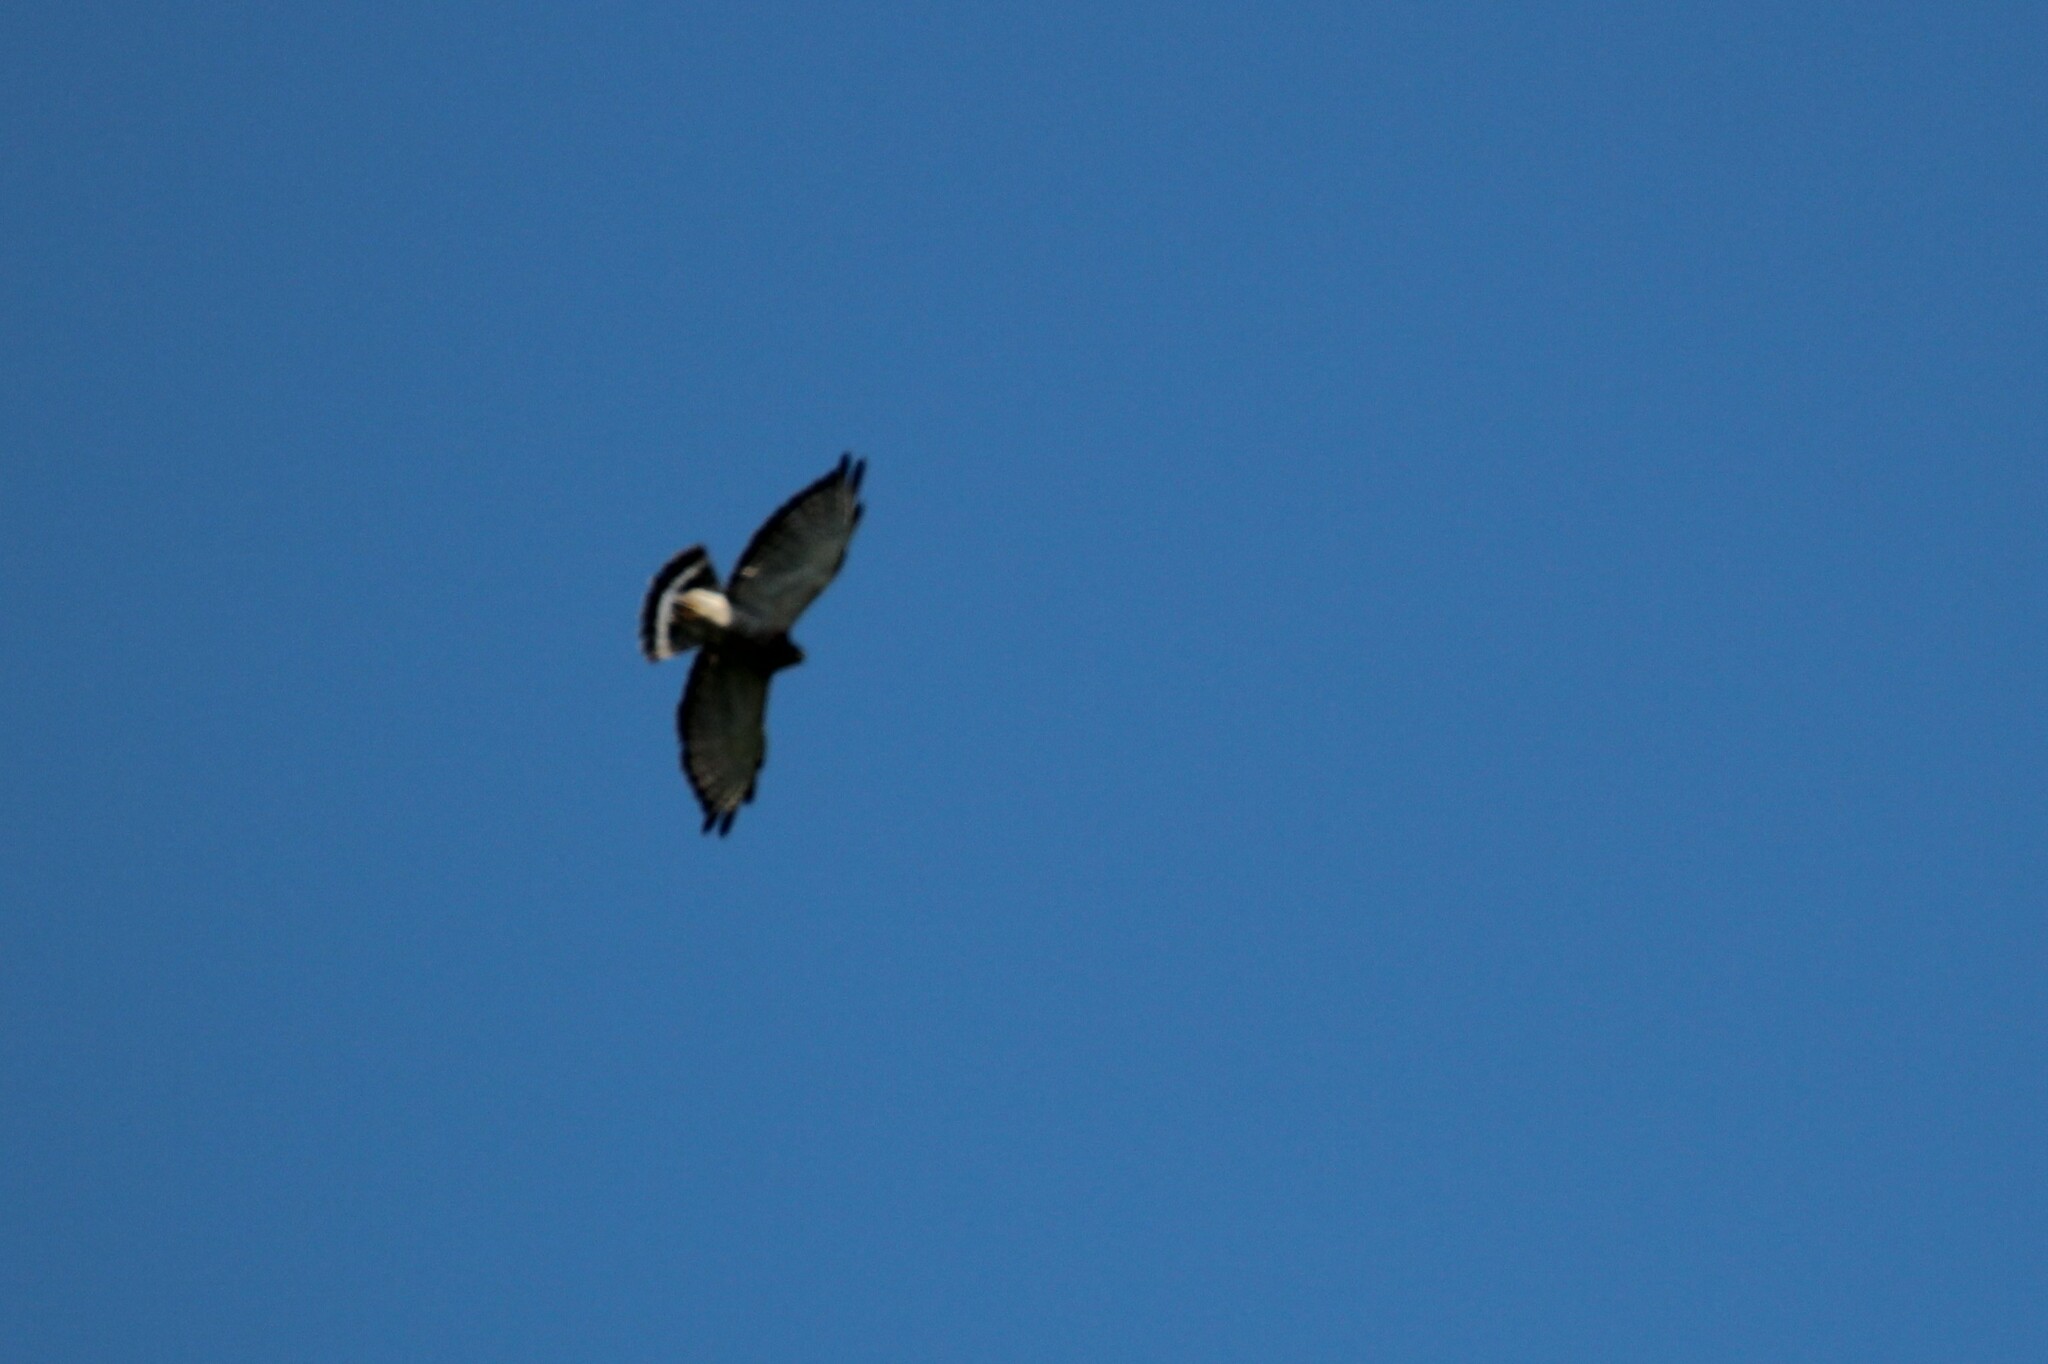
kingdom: Animalia
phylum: Chordata
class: Aves
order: Accipitriformes
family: Accipitridae
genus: Buteo
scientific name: Buteo platypterus
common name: Broad-winged hawk
